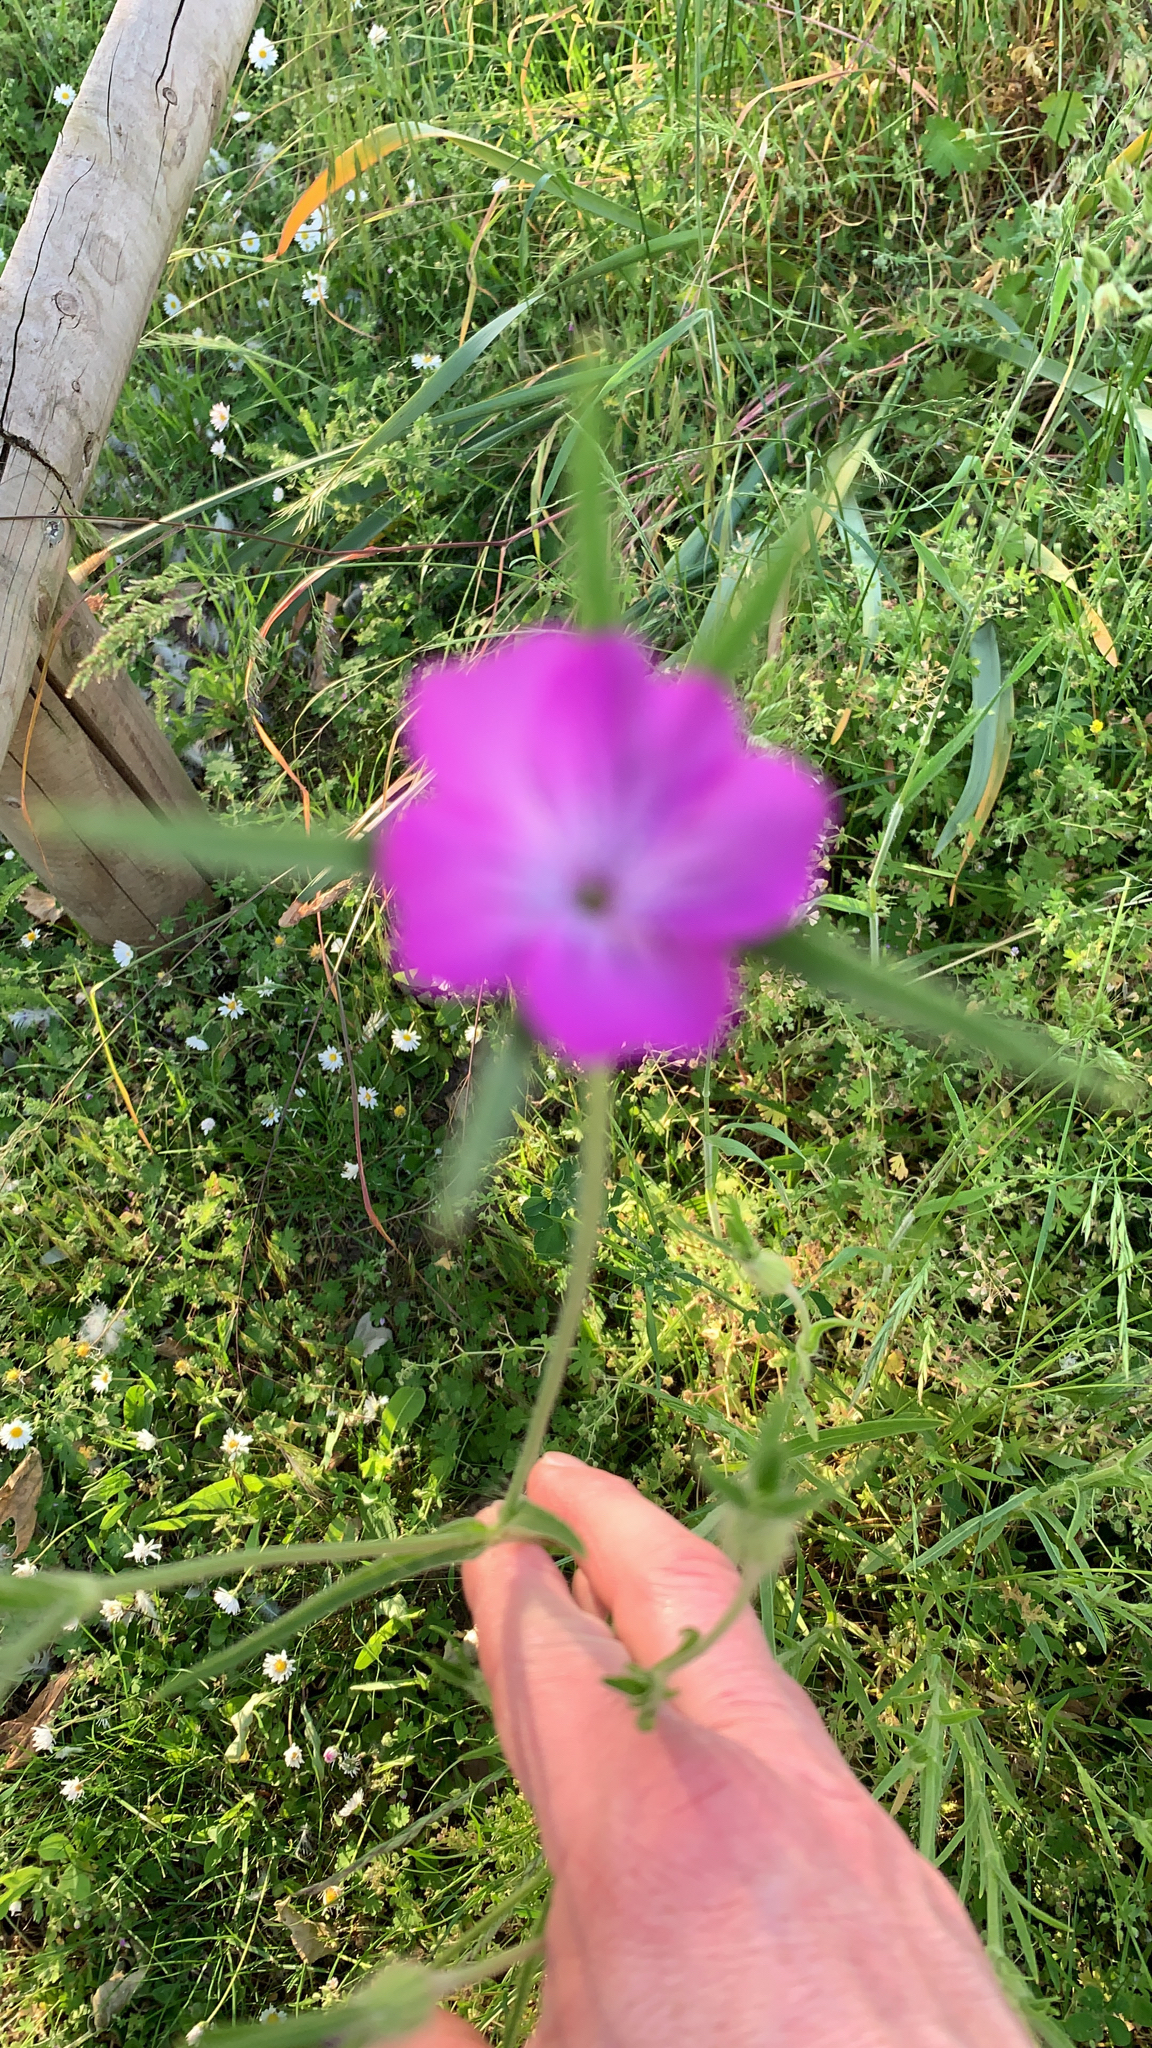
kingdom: Plantae
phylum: Tracheophyta
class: Magnoliopsida
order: Caryophyllales
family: Caryophyllaceae
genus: Agrostemma
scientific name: Agrostemma githago
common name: Common corncockle
